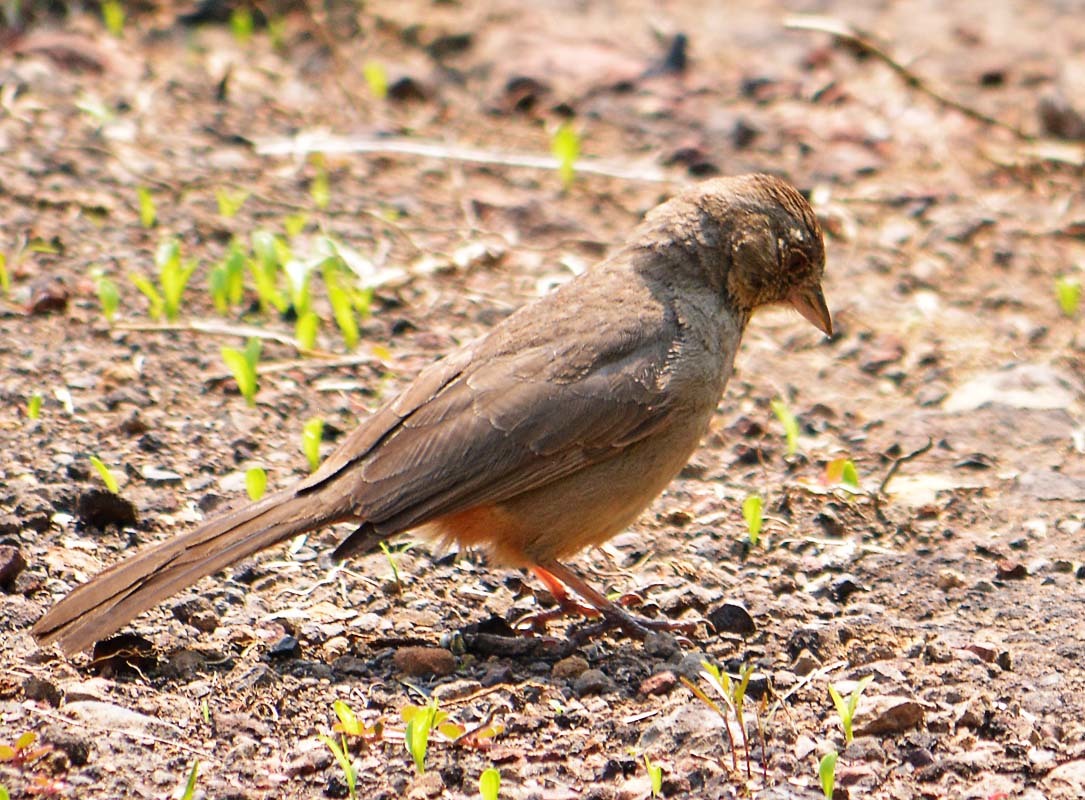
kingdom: Animalia
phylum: Chordata
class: Aves
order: Passeriformes
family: Passerellidae
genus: Melozone
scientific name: Melozone fusca
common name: Canyon towhee
